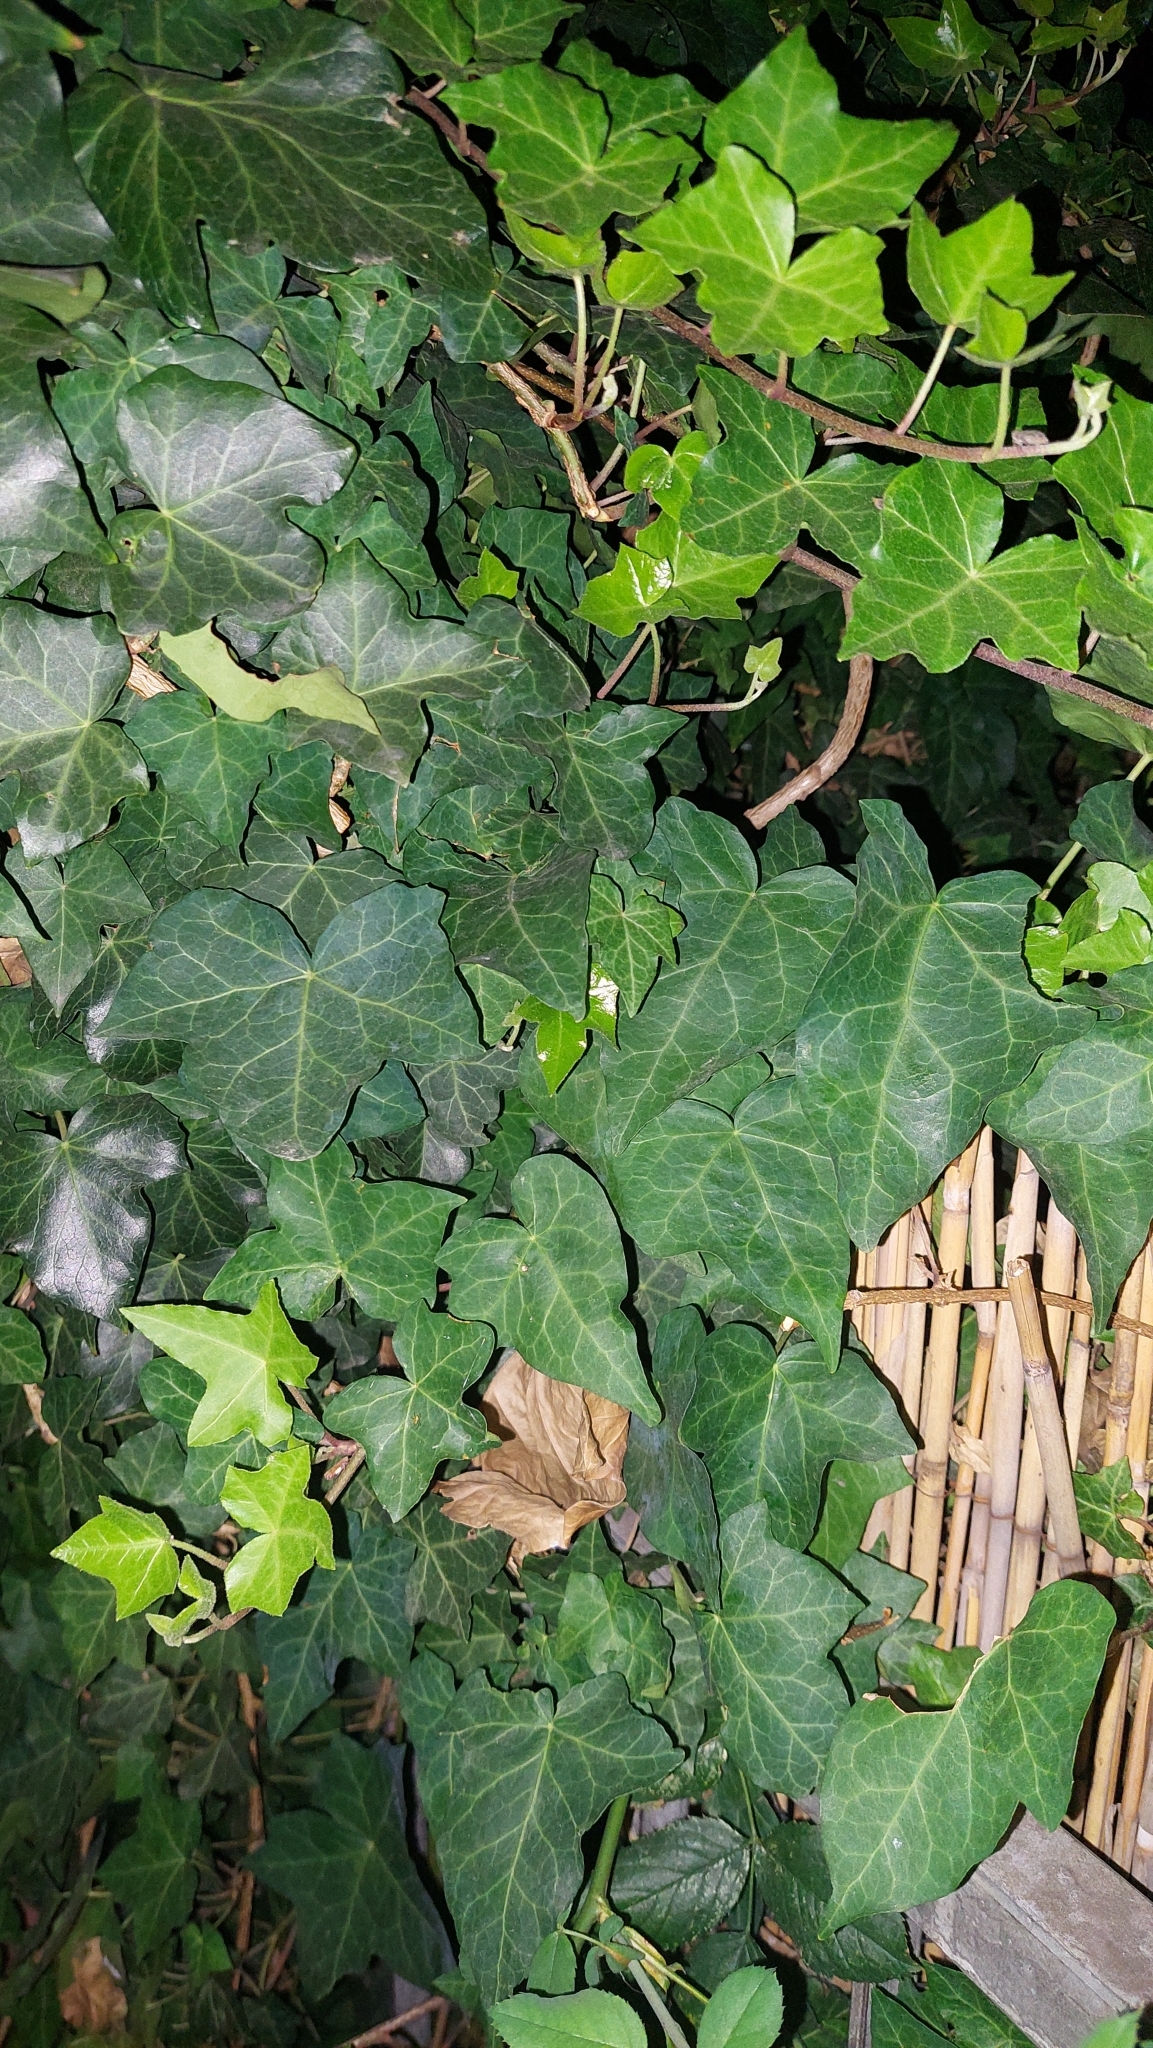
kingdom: Plantae
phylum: Tracheophyta
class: Magnoliopsida
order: Apiales
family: Araliaceae
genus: Hedera
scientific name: Hedera helix
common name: Ivy
